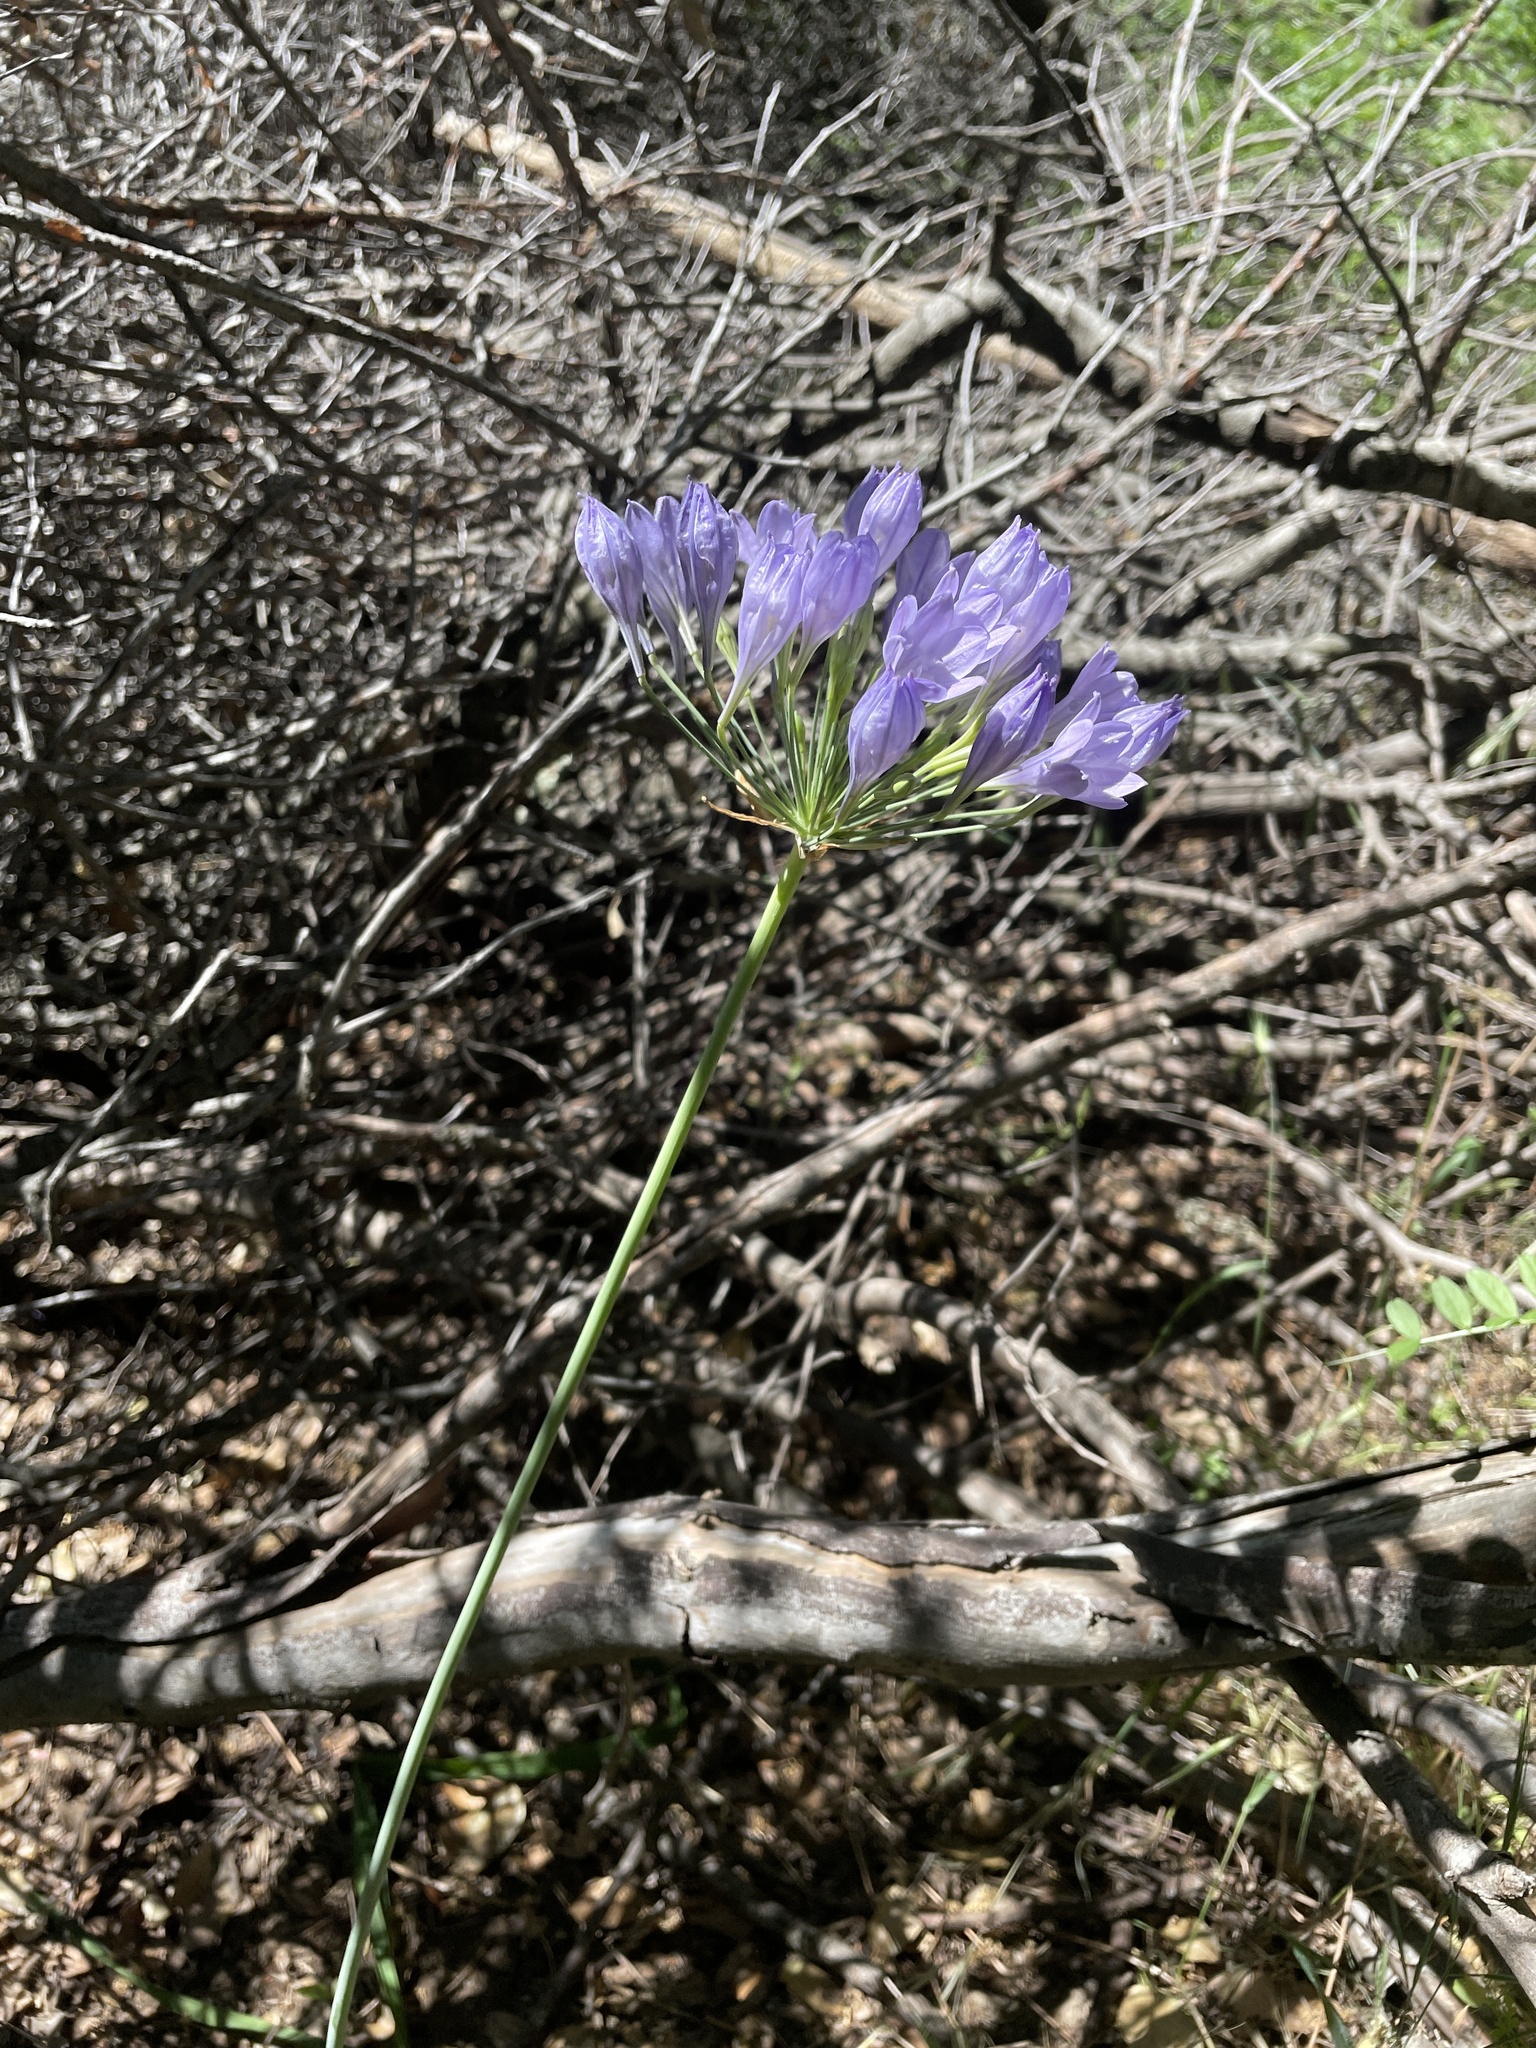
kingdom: Plantae
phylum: Tracheophyta
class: Liliopsida
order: Asparagales
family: Asparagaceae
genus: Triteleia
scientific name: Triteleia laxa
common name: Triplet-lily
